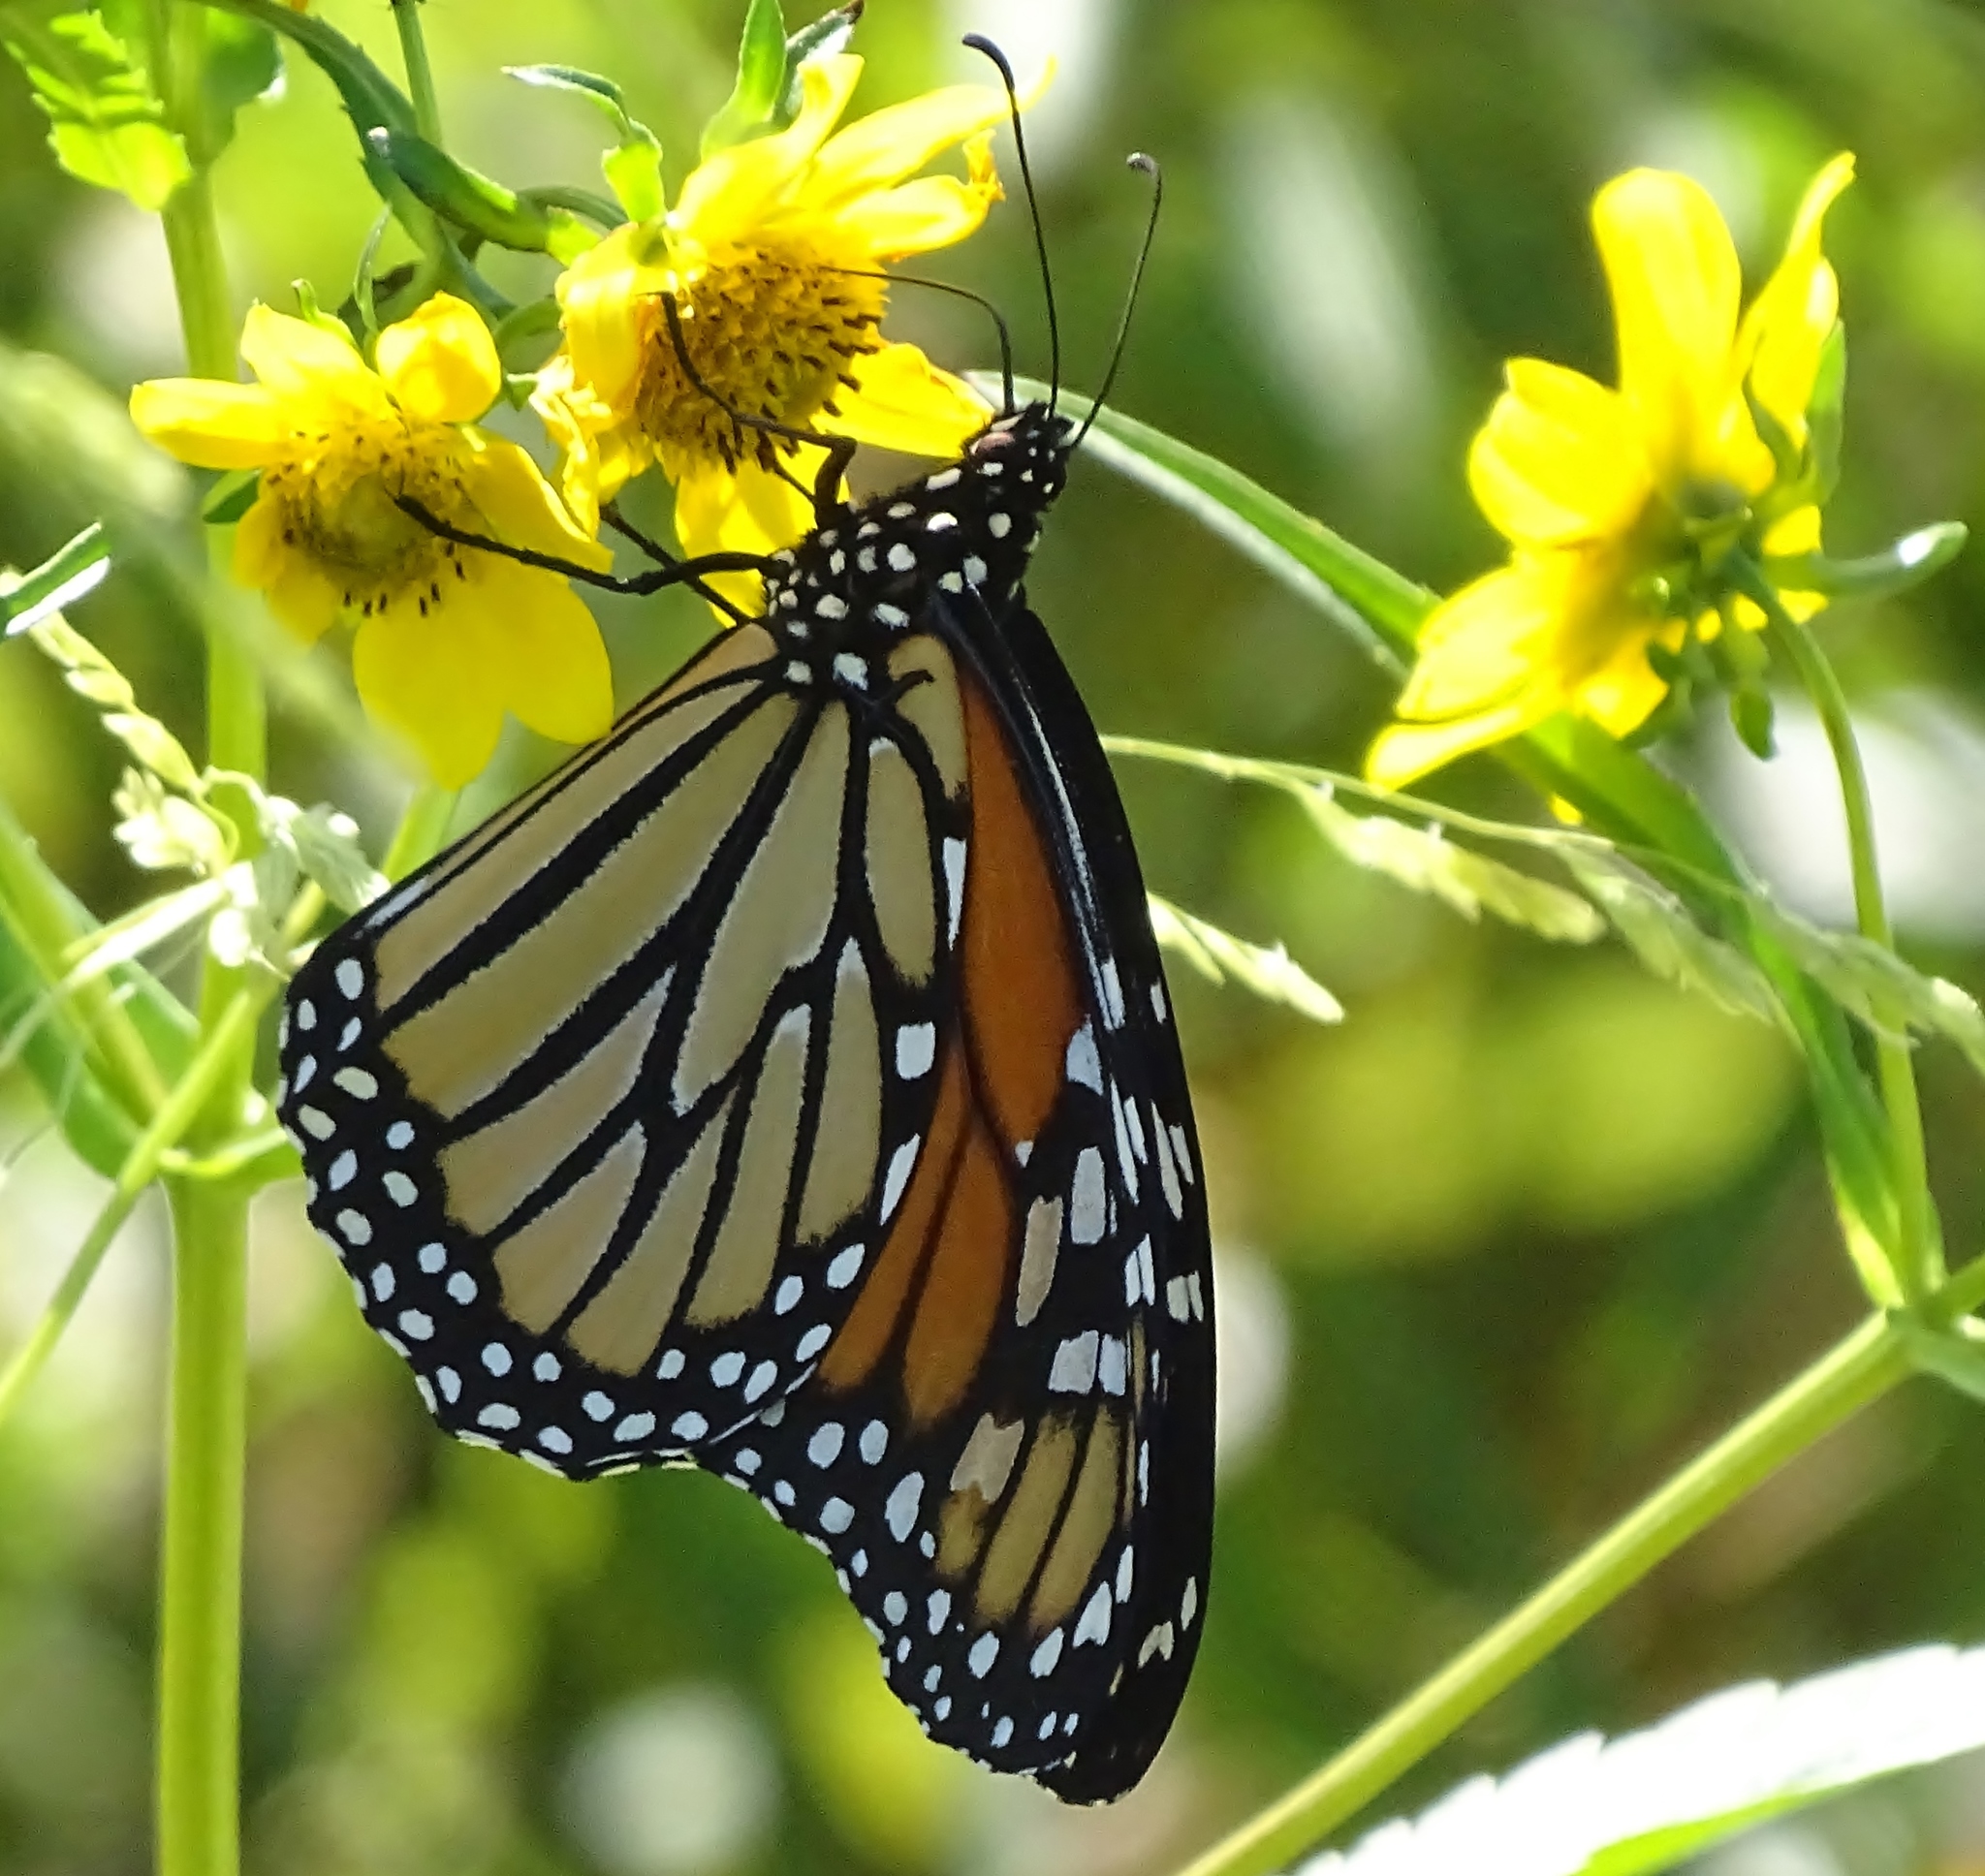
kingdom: Animalia
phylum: Arthropoda
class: Insecta
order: Lepidoptera
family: Nymphalidae
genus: Danaus
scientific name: Danaus plexippus
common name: Monarch
